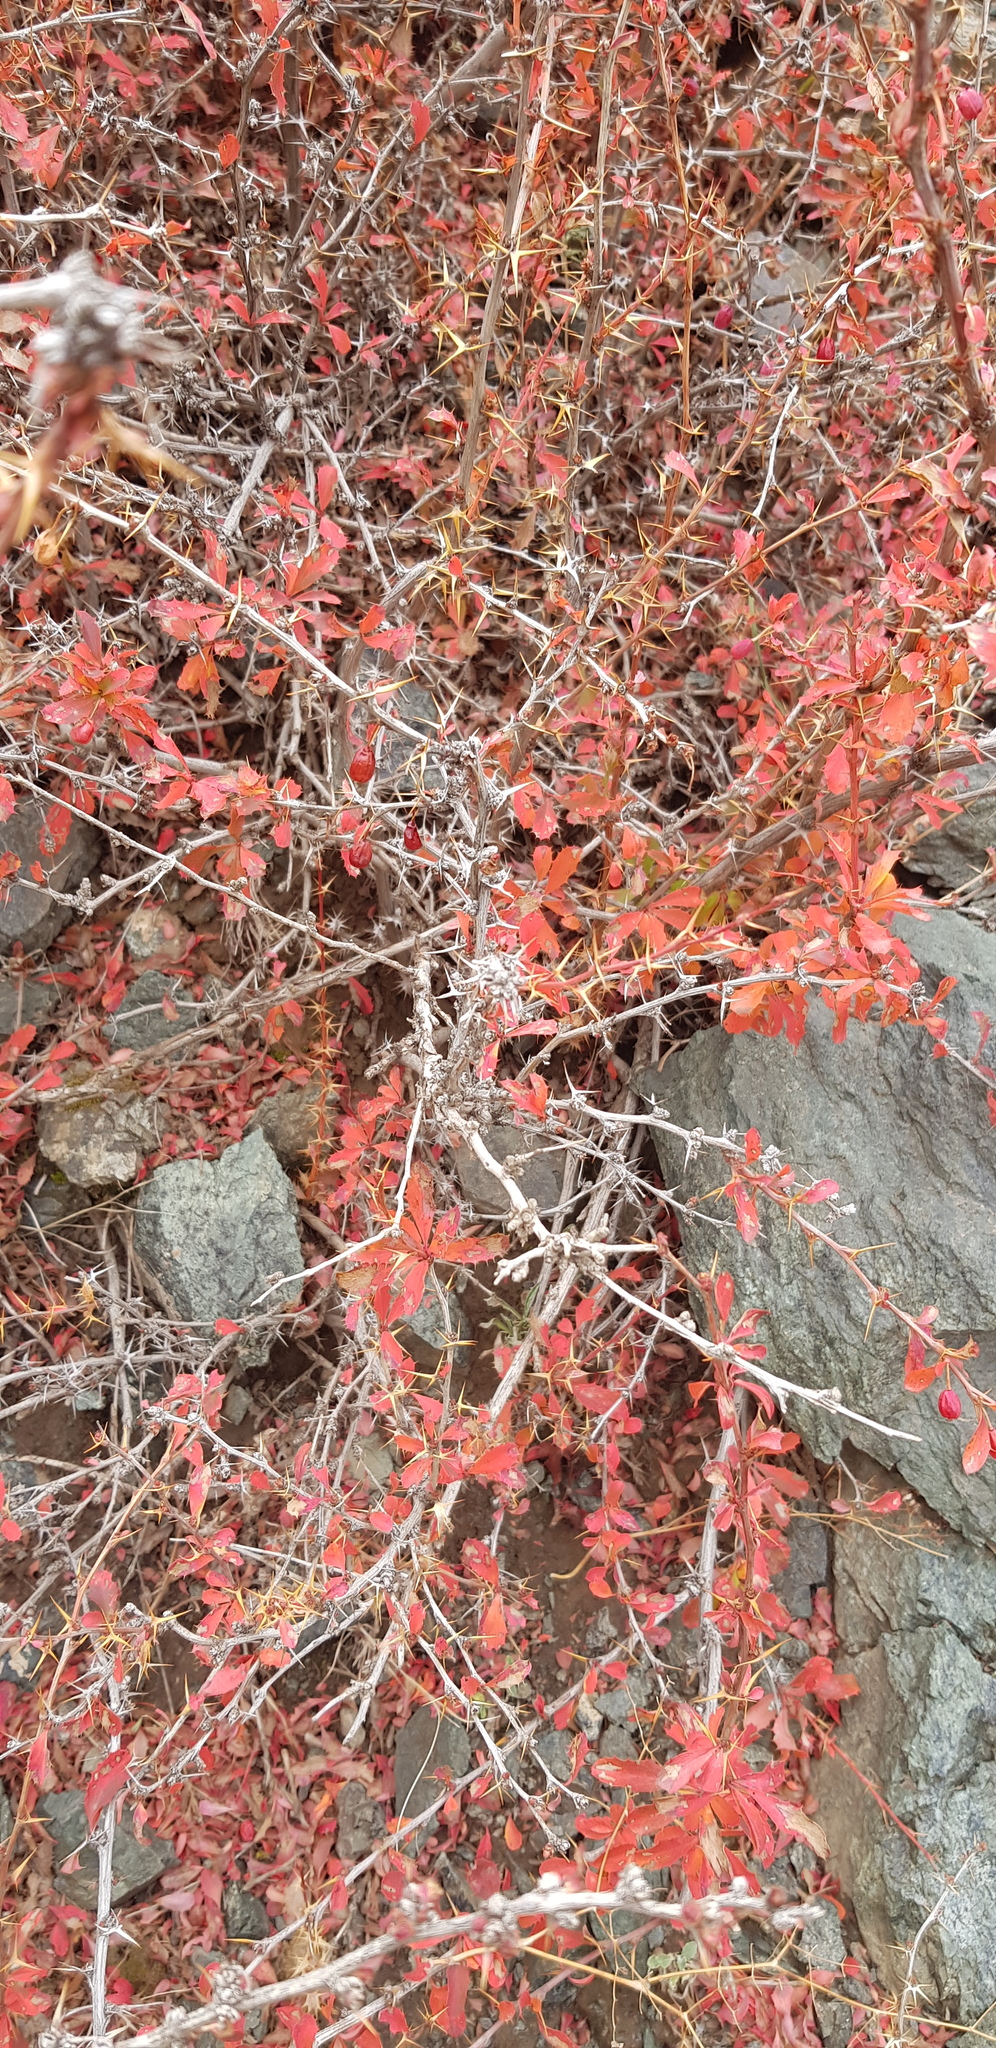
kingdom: Plantae
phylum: Tracheophyta
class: Magnoliopsida
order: Ranunculales
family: Berberidaceae
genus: Berberis
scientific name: Berberis sibirica
